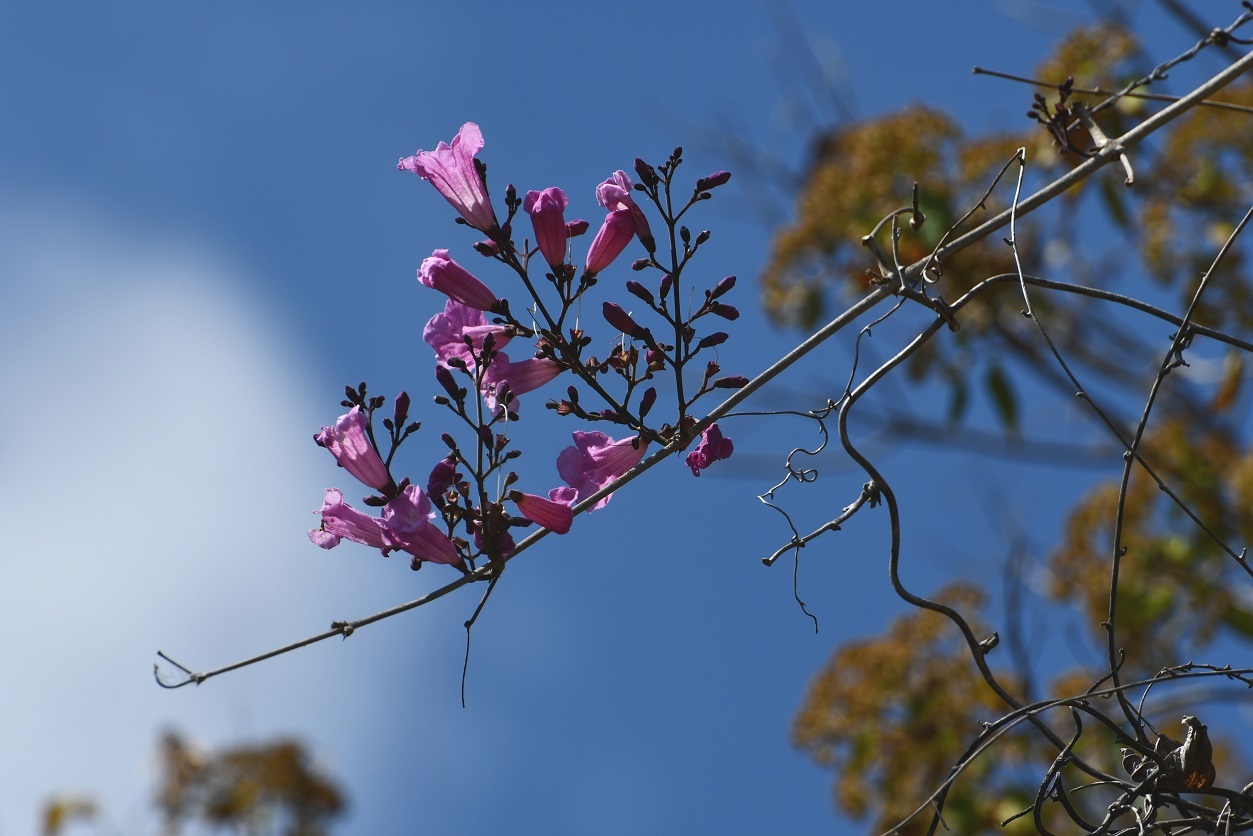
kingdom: Plantae
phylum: Tracheophyta
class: Magnoliopsida
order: Lamiales
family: Bignoniaceae
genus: Fridericia
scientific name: Fridericia chica
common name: Cricketvine
